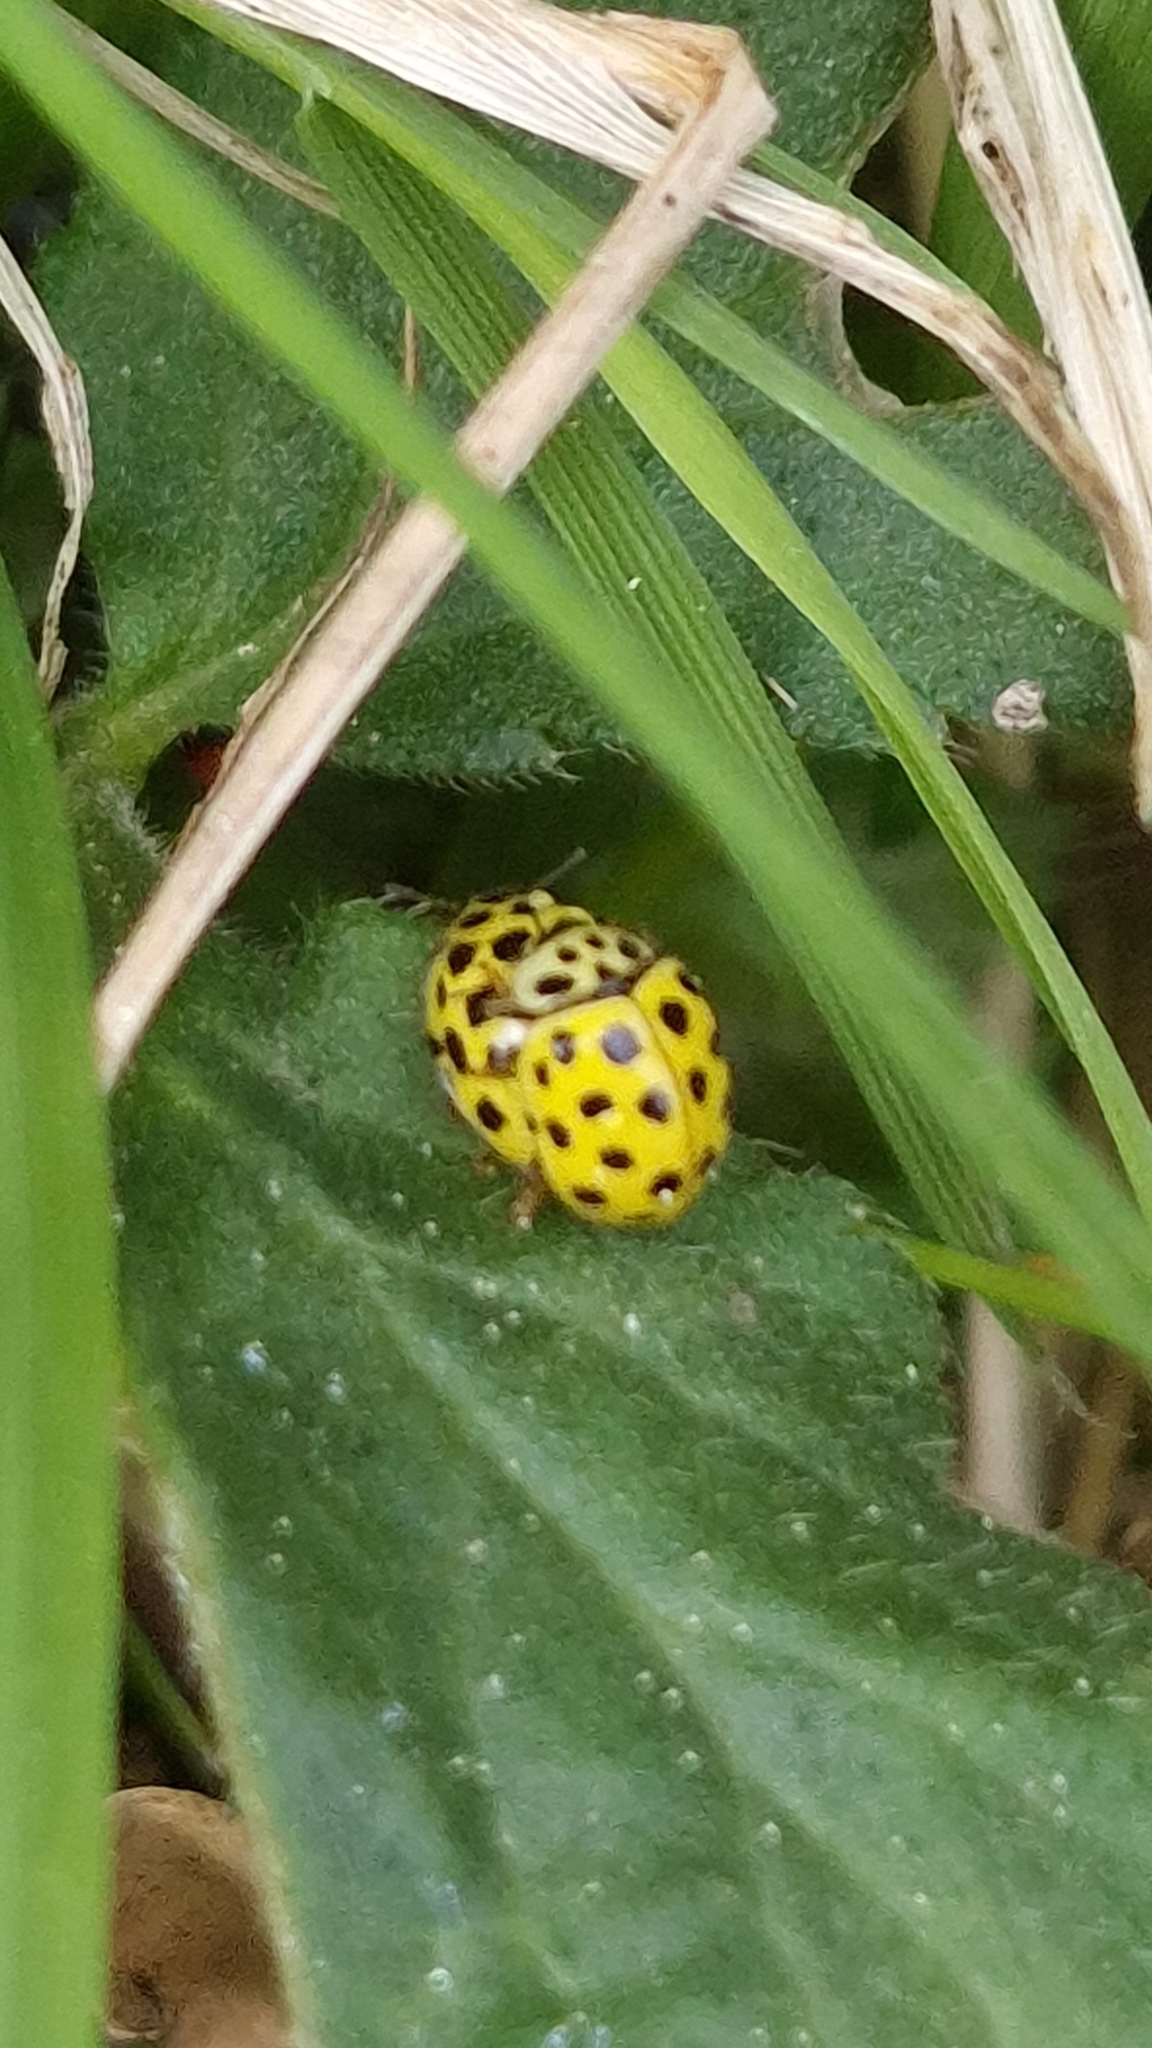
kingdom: Animalia
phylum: Arthropoda
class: Insecta
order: Coleoptera
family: Coccinellidae
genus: Psyllobora
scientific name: Psyllobora vigintiduopunctata
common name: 22-spot ladybird
